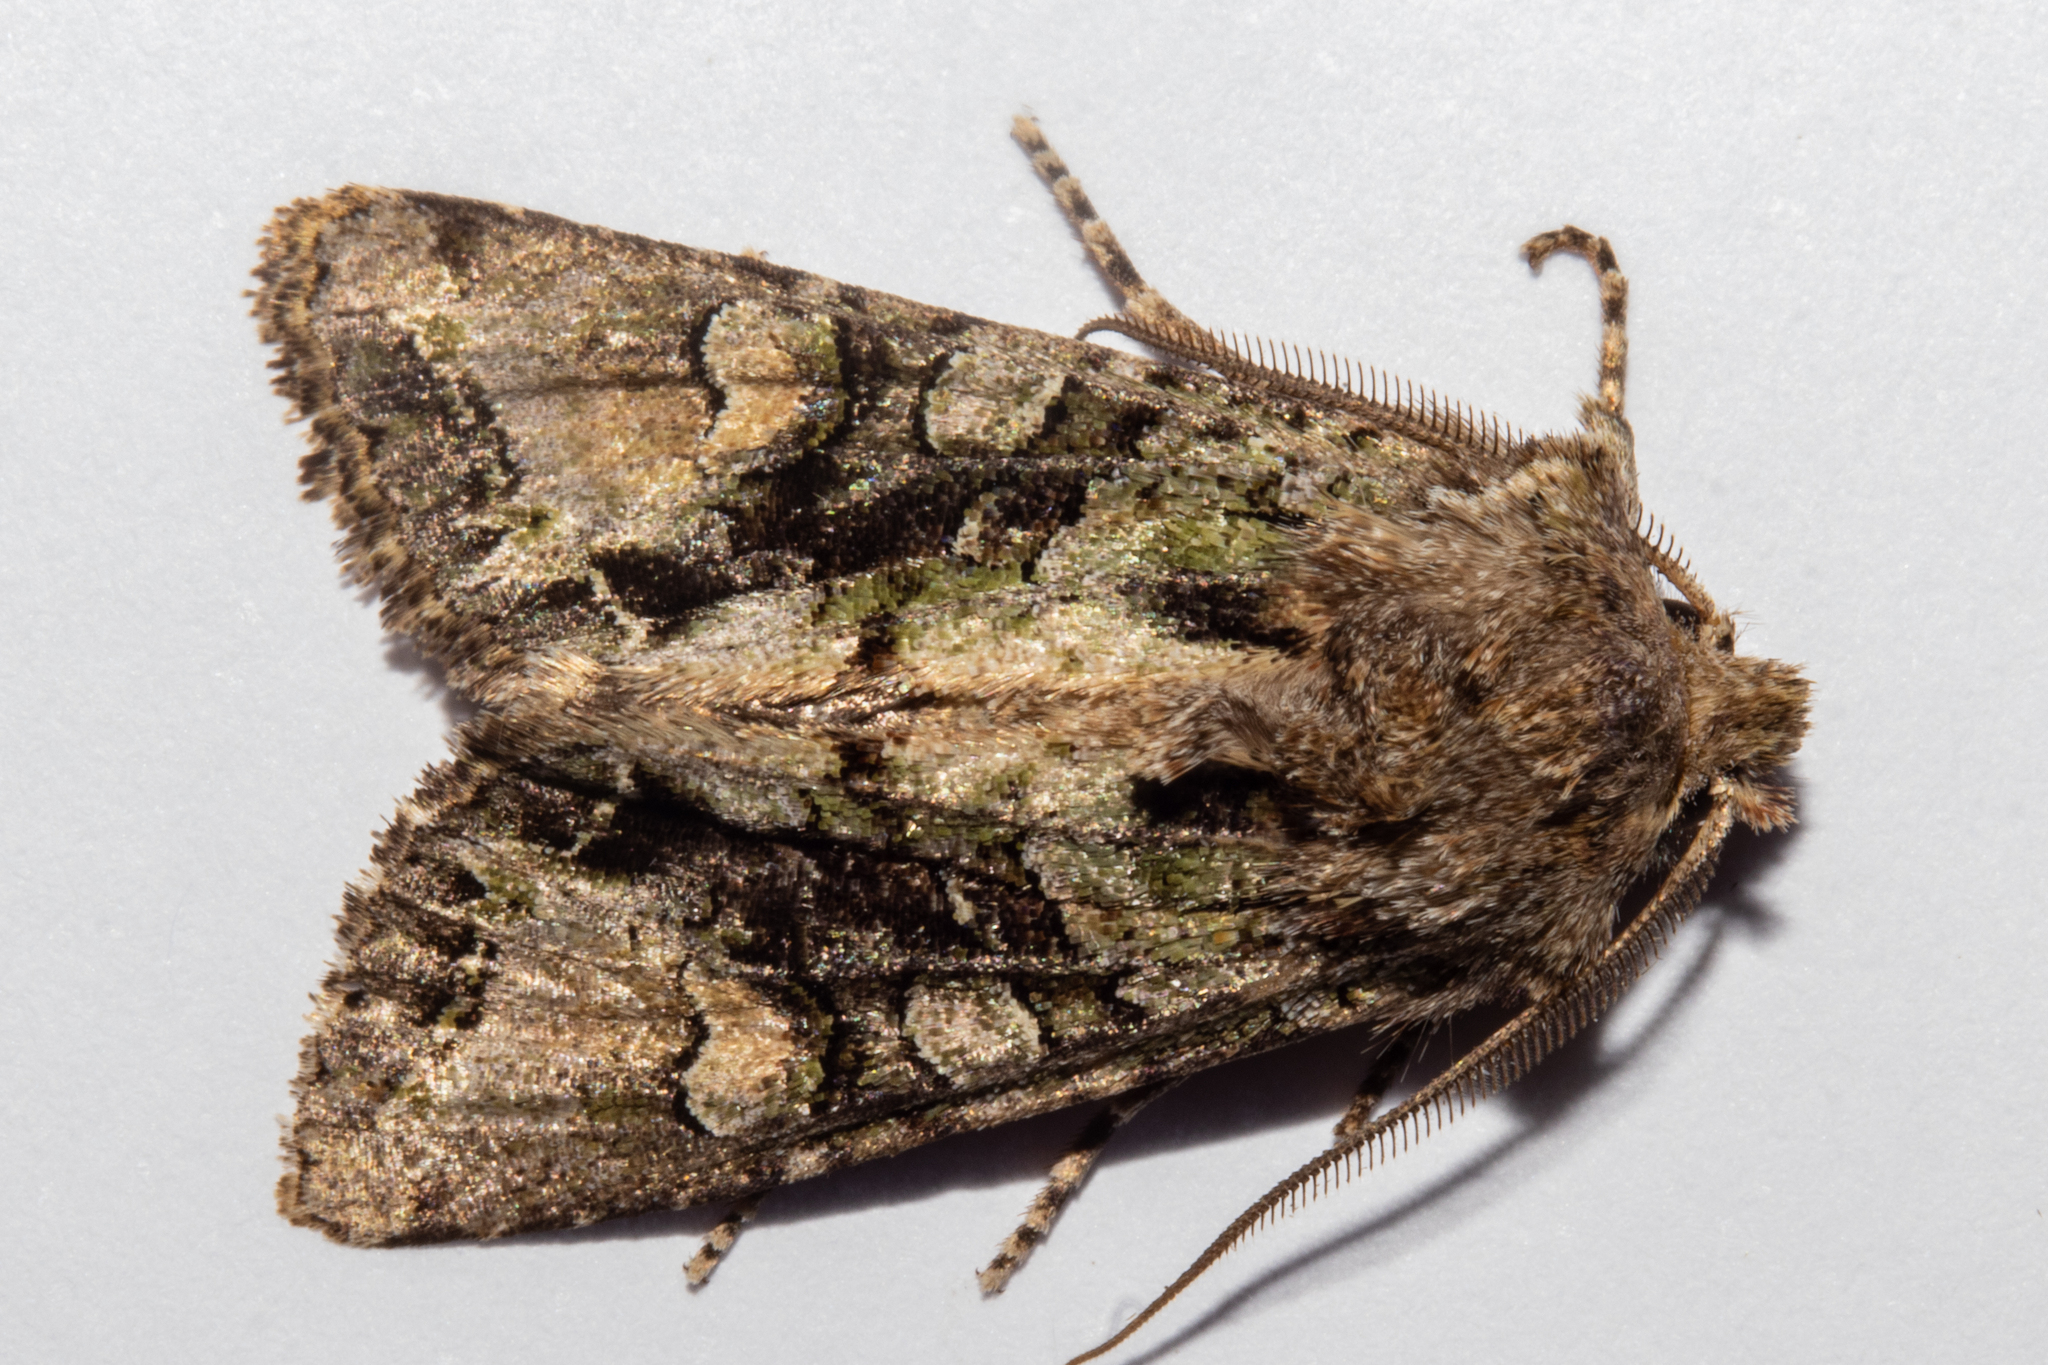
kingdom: Animalia
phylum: Arthropoda
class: Insecta
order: Lepidoptera
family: Noctuidae
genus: Ichneutica
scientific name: Ichneutica insignis
